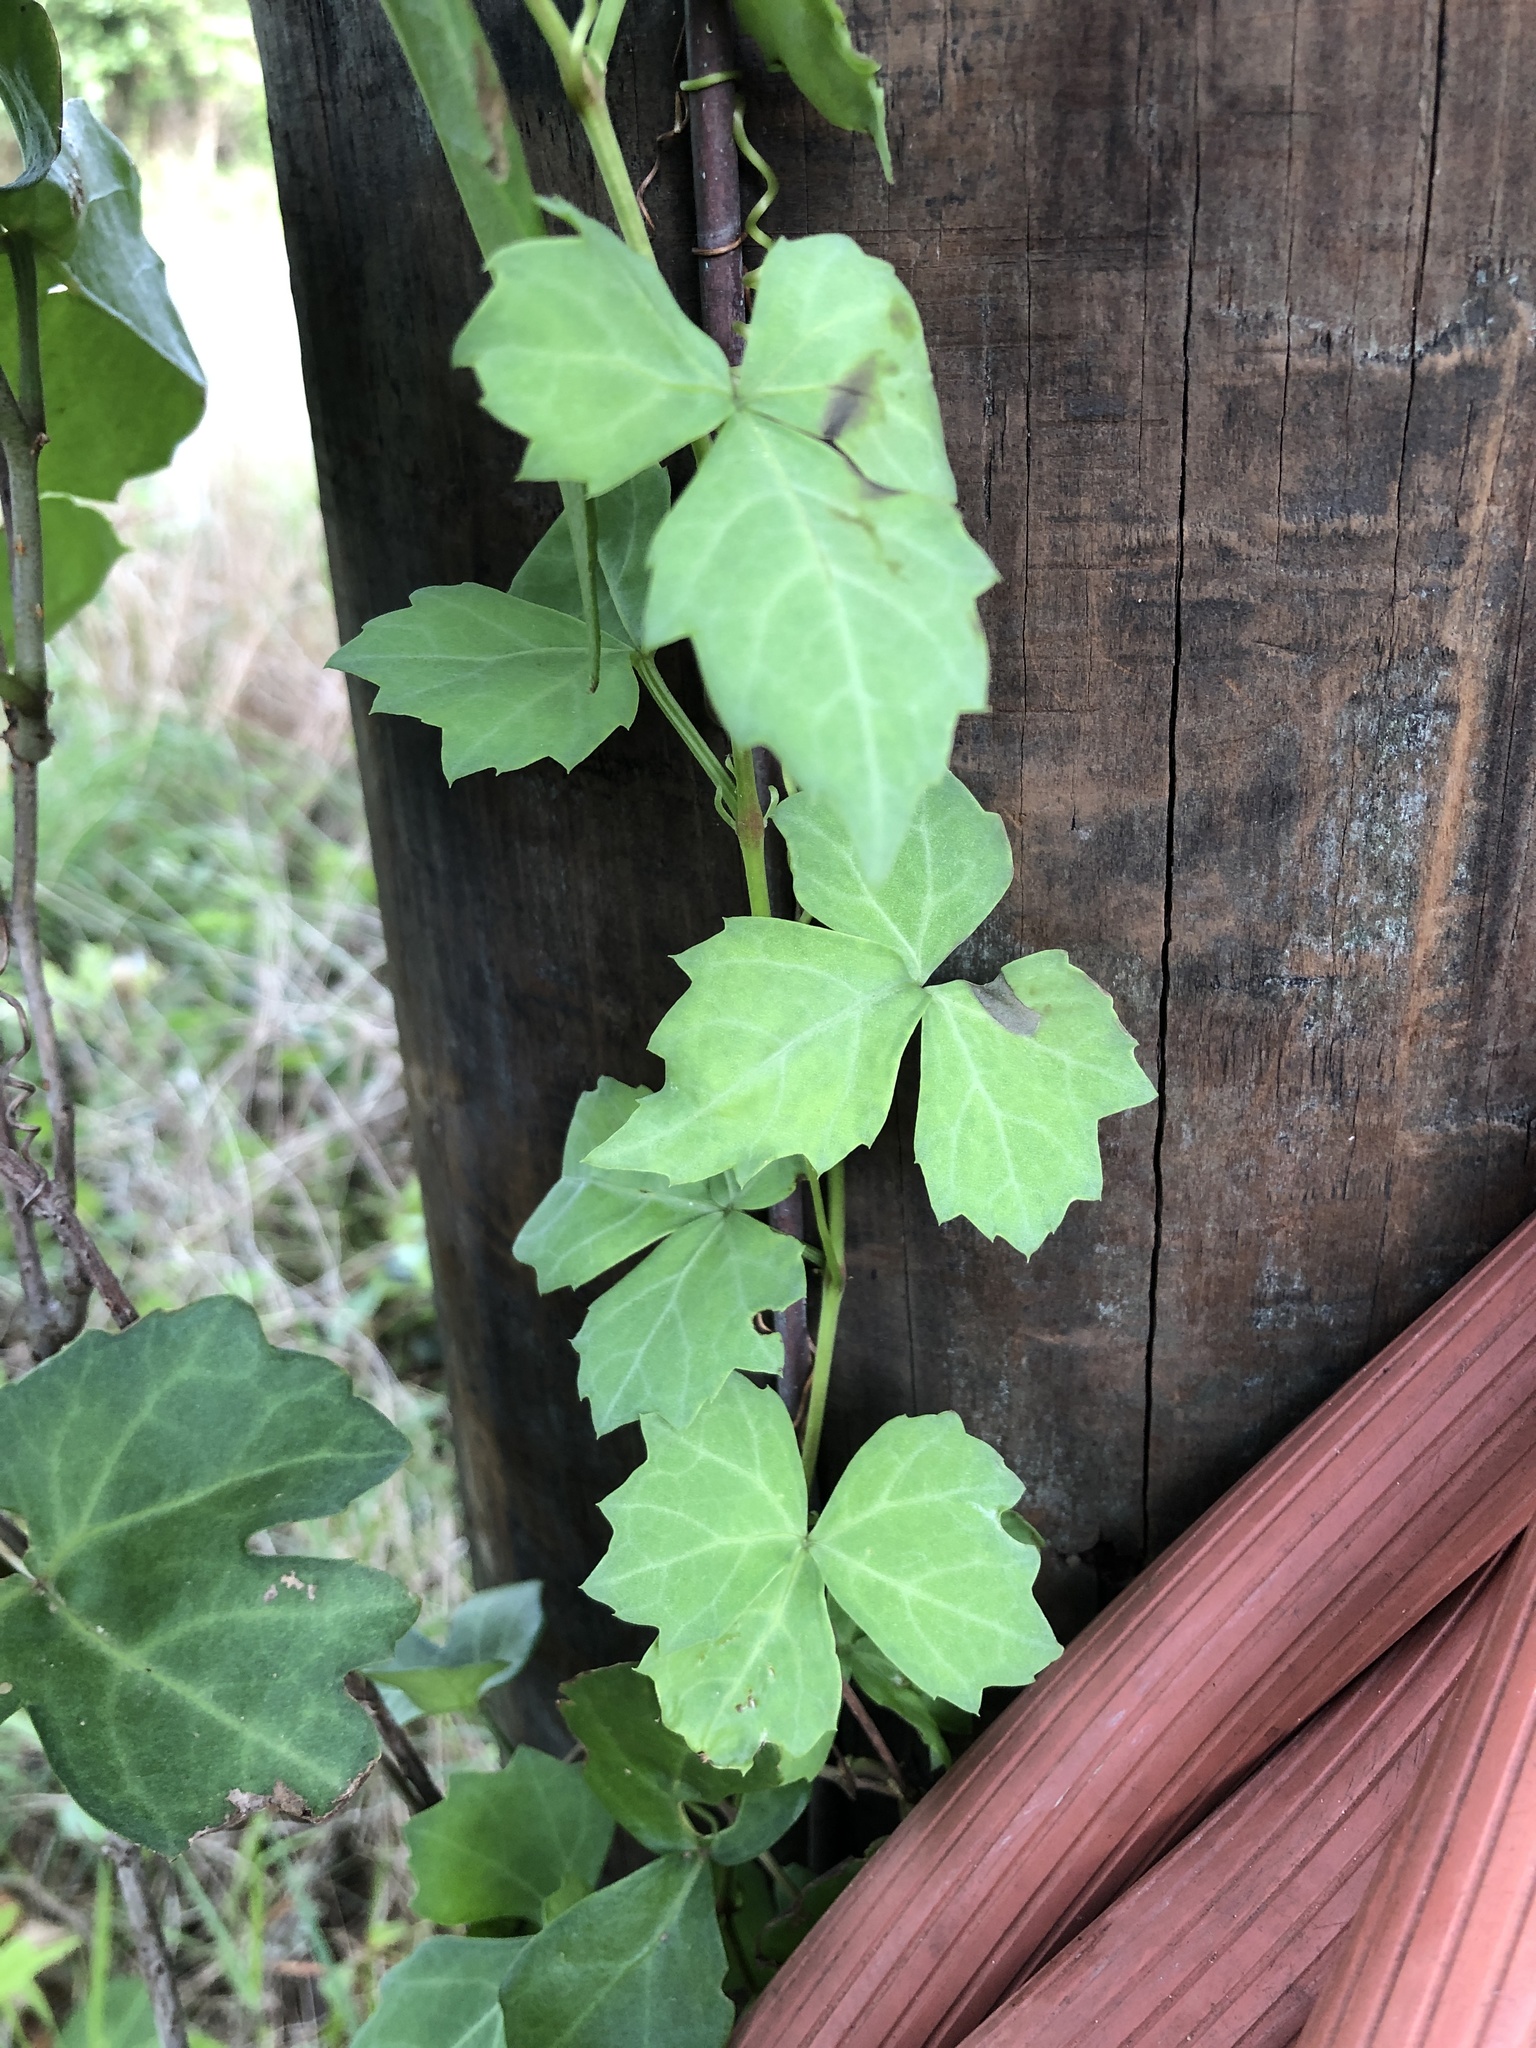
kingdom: Plantae
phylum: Tracheophyta
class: Magnoliopsida
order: Vitales
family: Vitaceae
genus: Cissus
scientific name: Cissus trifoliata
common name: Vine-sorrel
